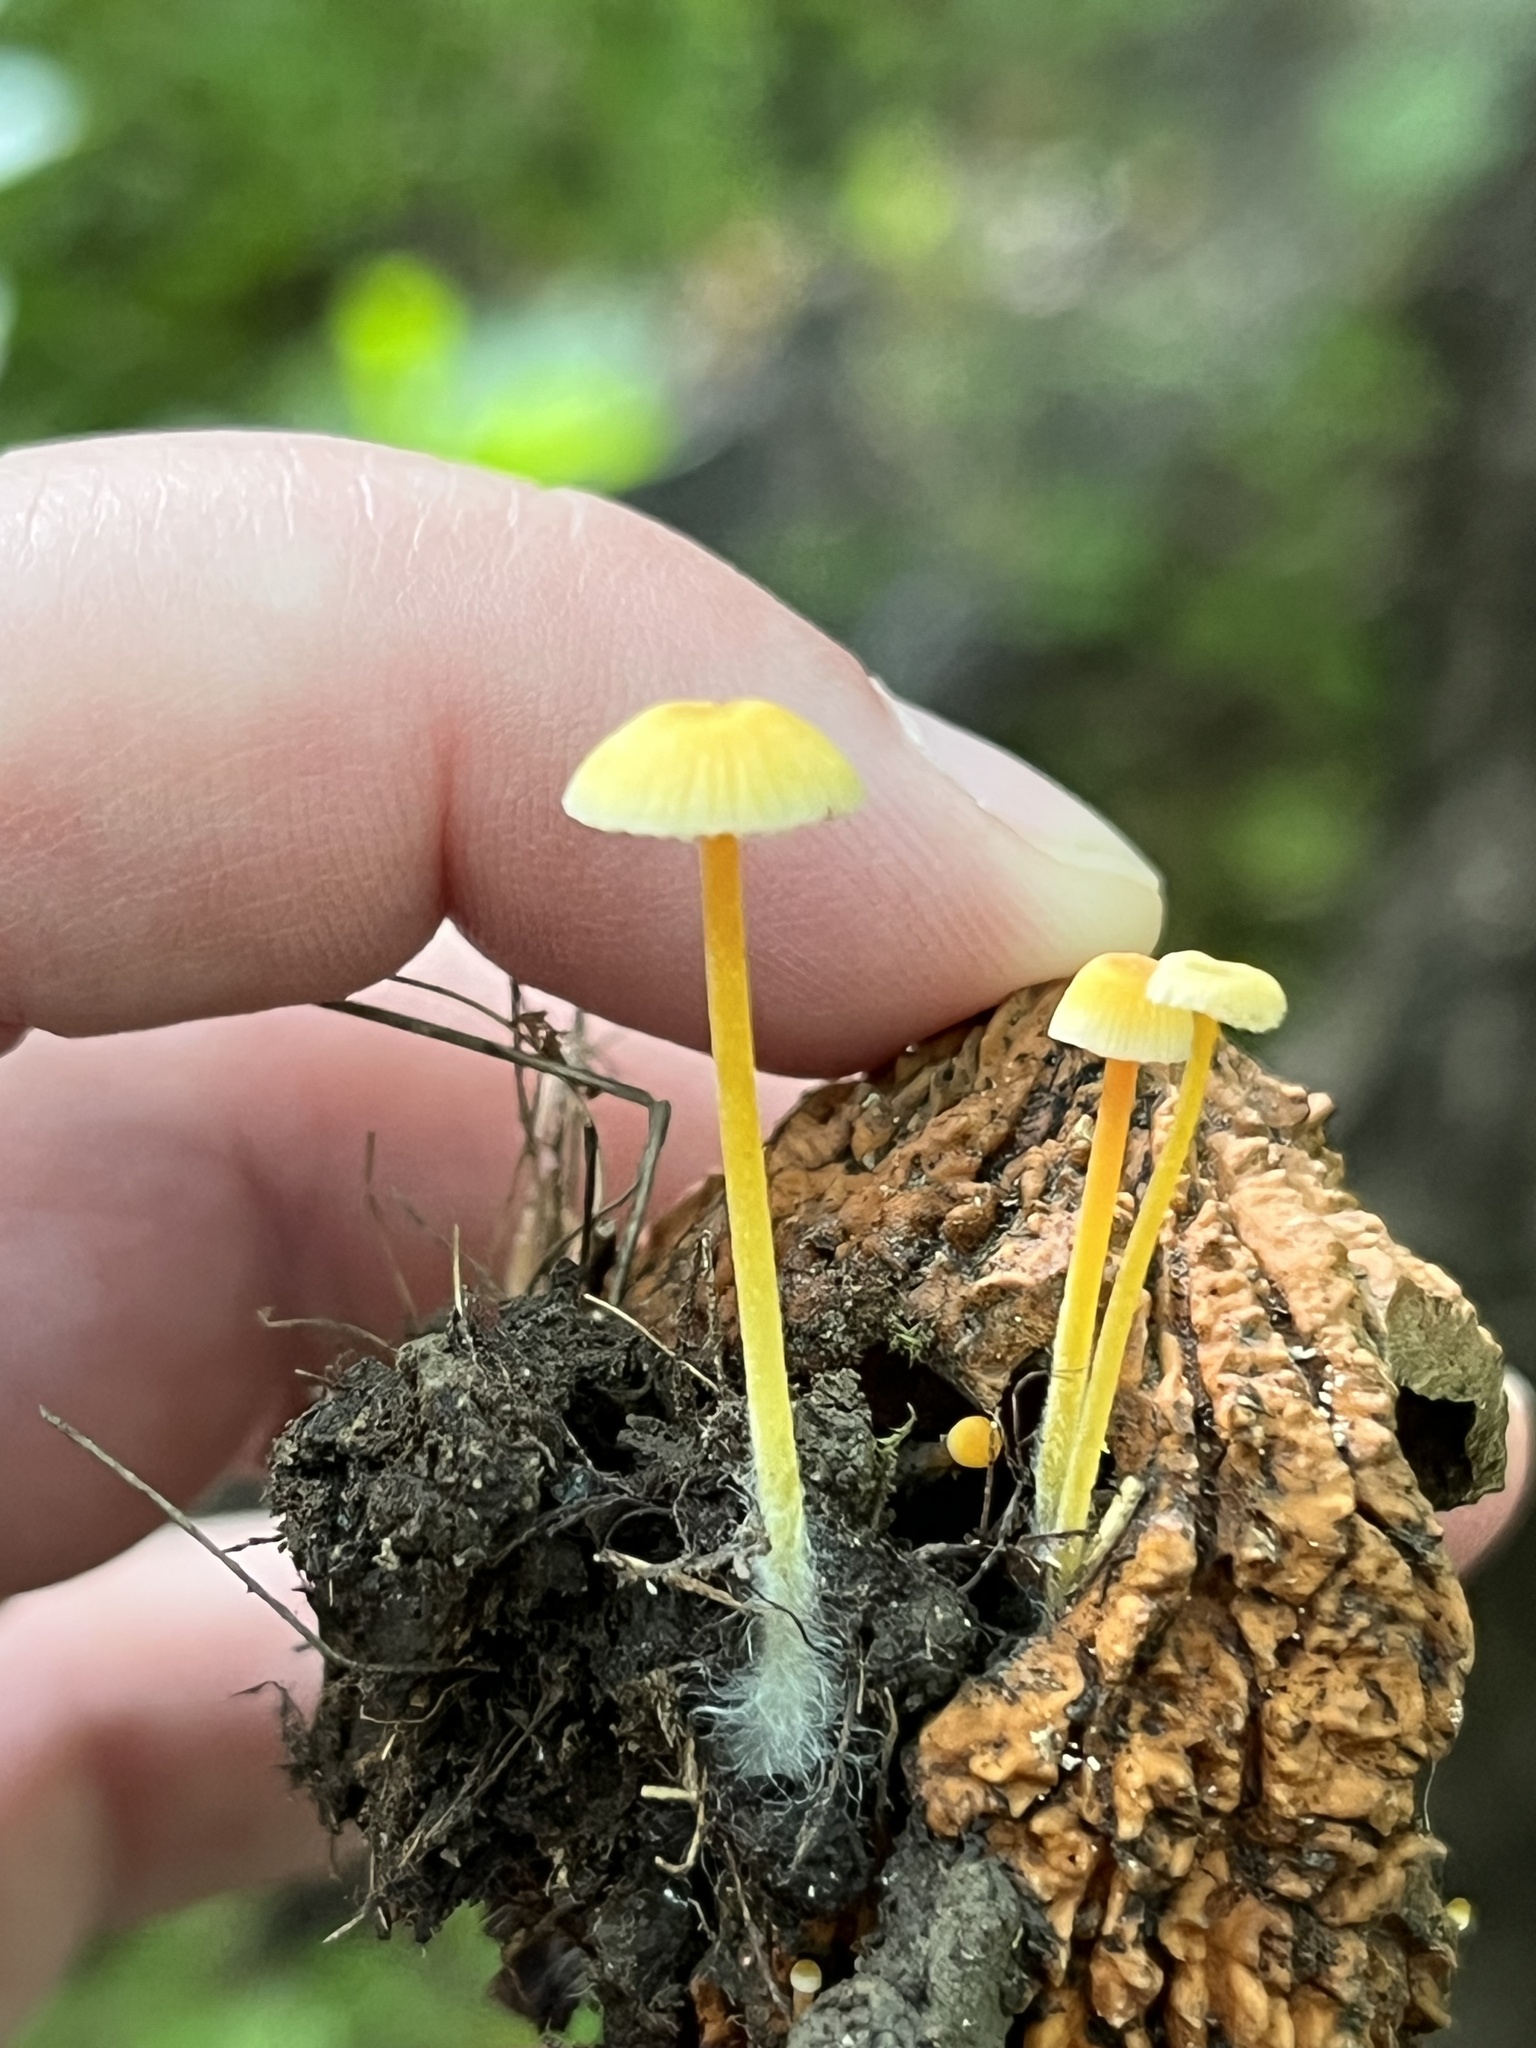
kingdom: Fungi
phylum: Basidiomycota
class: Agaricomycetes
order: Agaricales
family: Mycenaceae
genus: Mycena
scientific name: Mycena crocea
